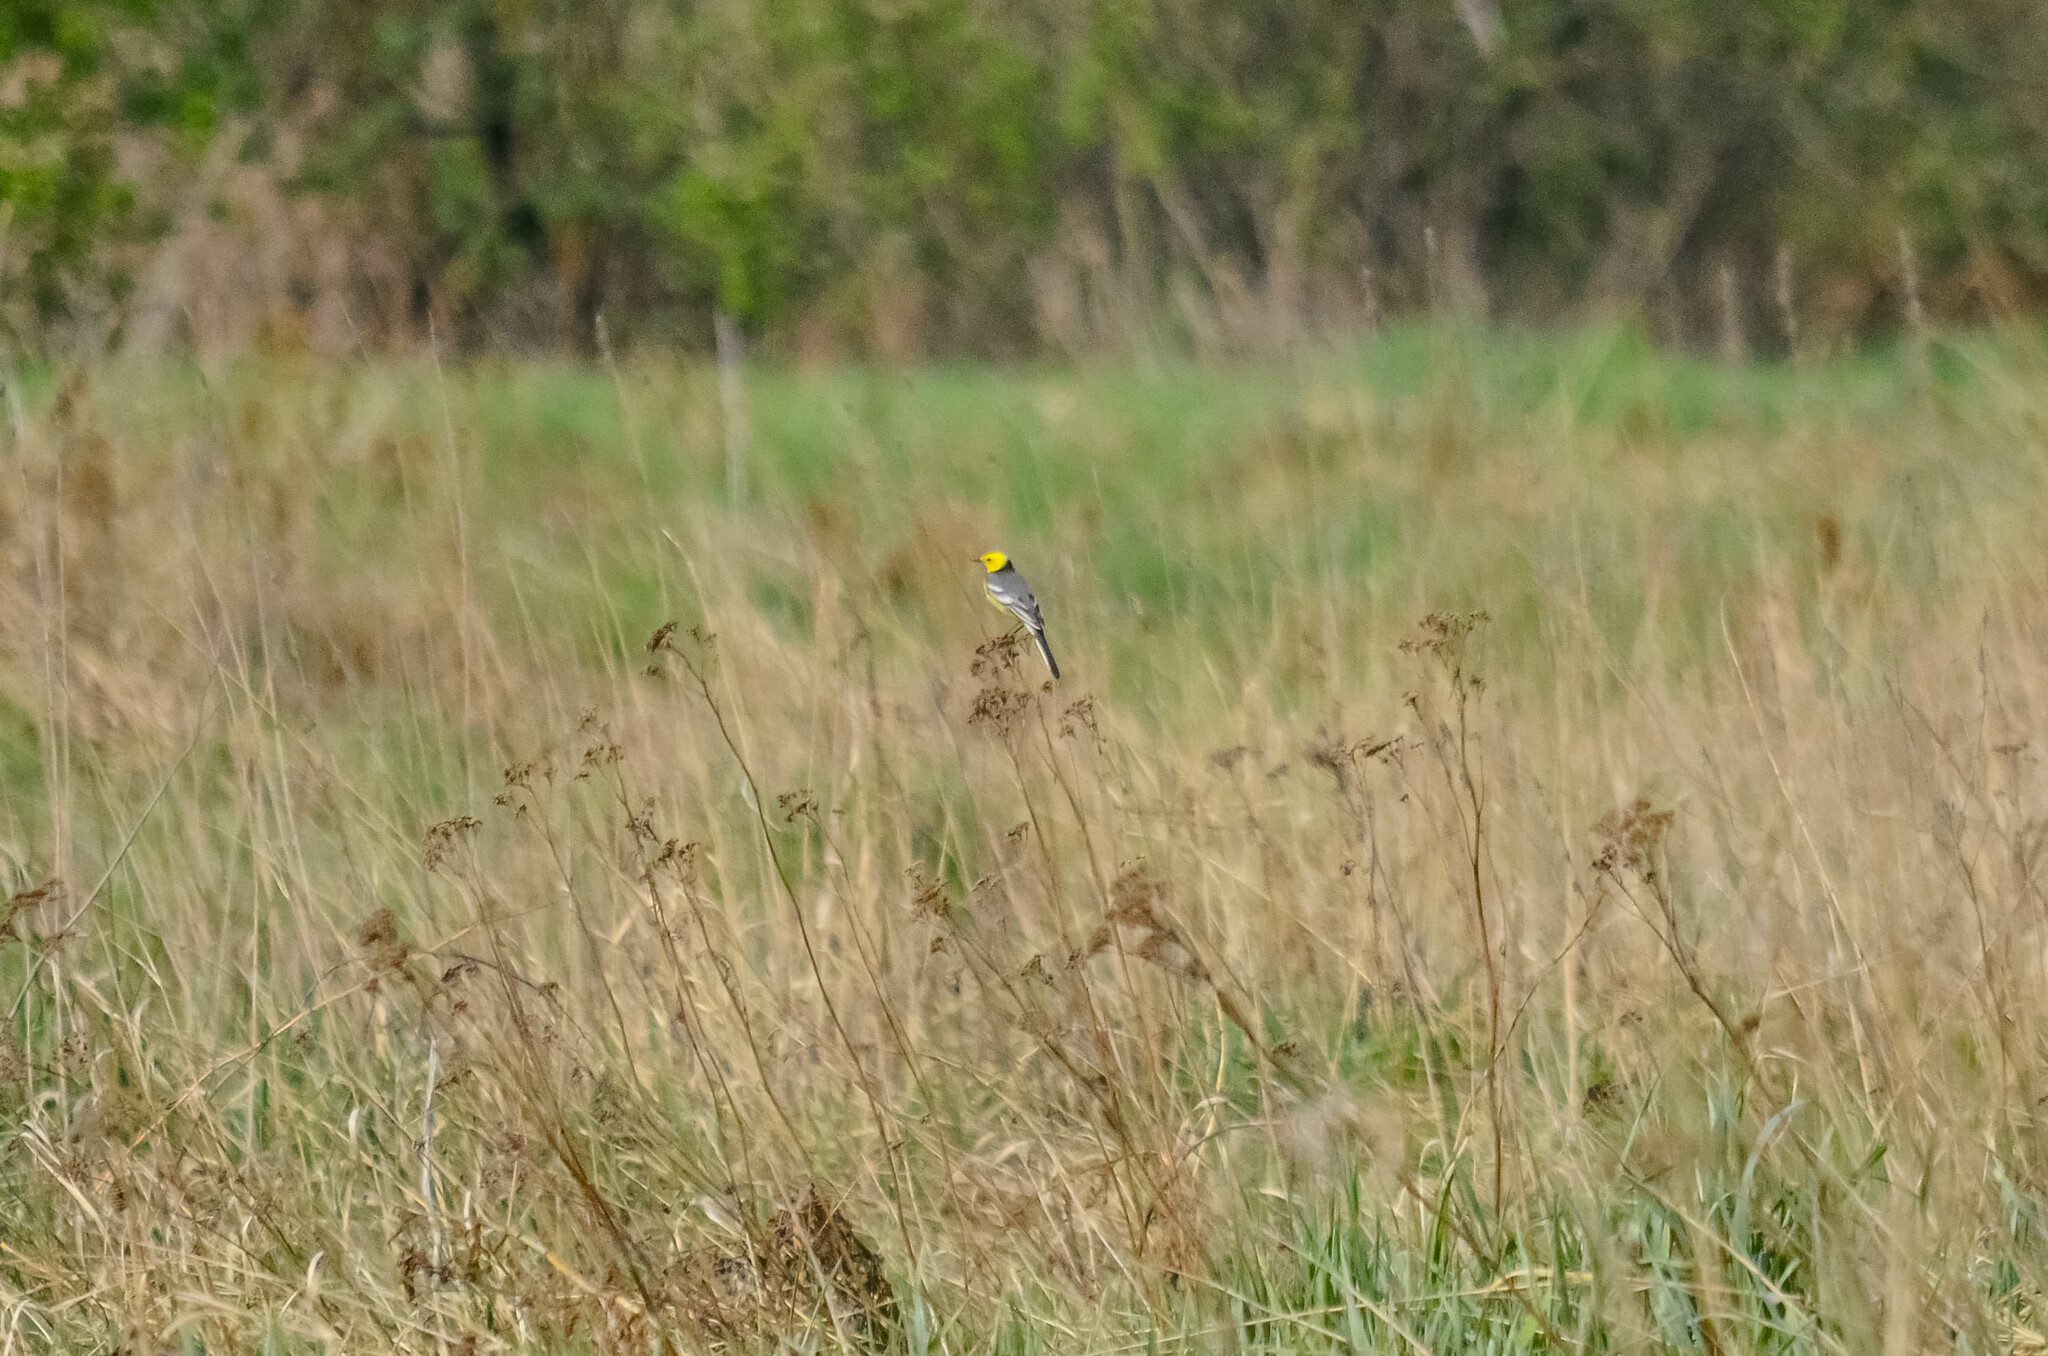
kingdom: Animalia
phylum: Chordata
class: Aves
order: Passeriformes
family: Motacillidae
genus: Motacilla
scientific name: Motacilla citreola
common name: Citrine wagtail
